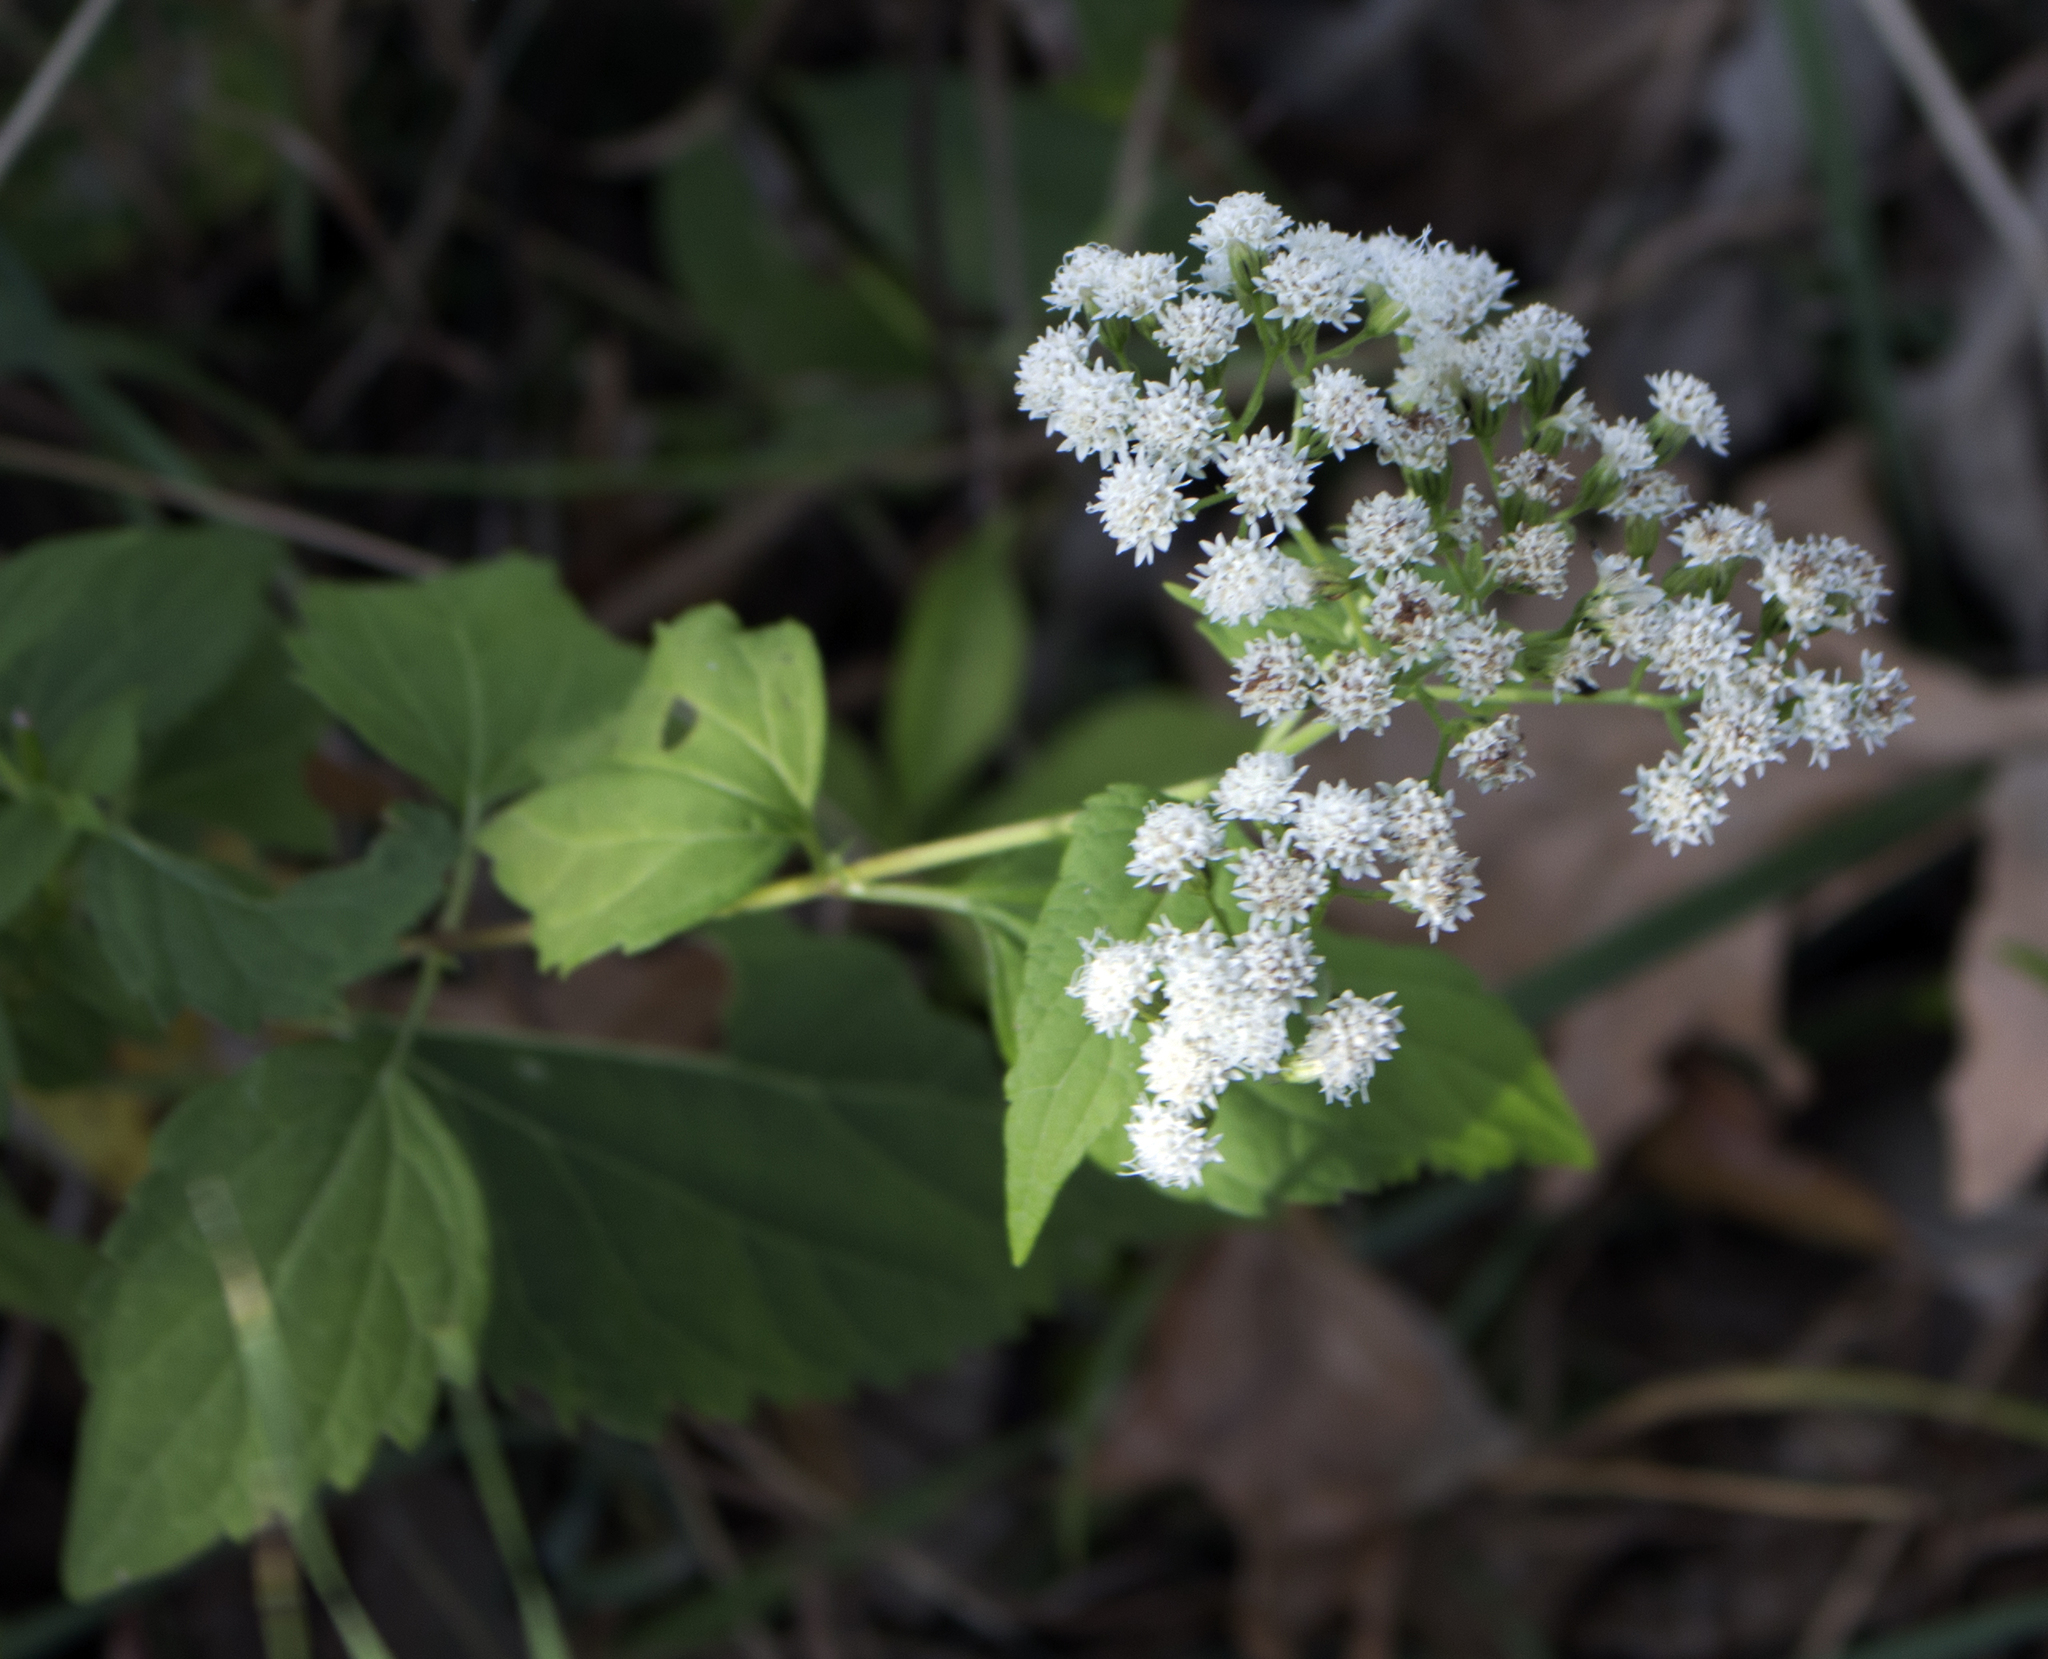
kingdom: Plantae
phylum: Tracheophyta
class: Magnoliopsida
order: Asterales
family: Asteraceae
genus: Ageratina
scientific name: Ageratina altissima
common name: White snakeroot
